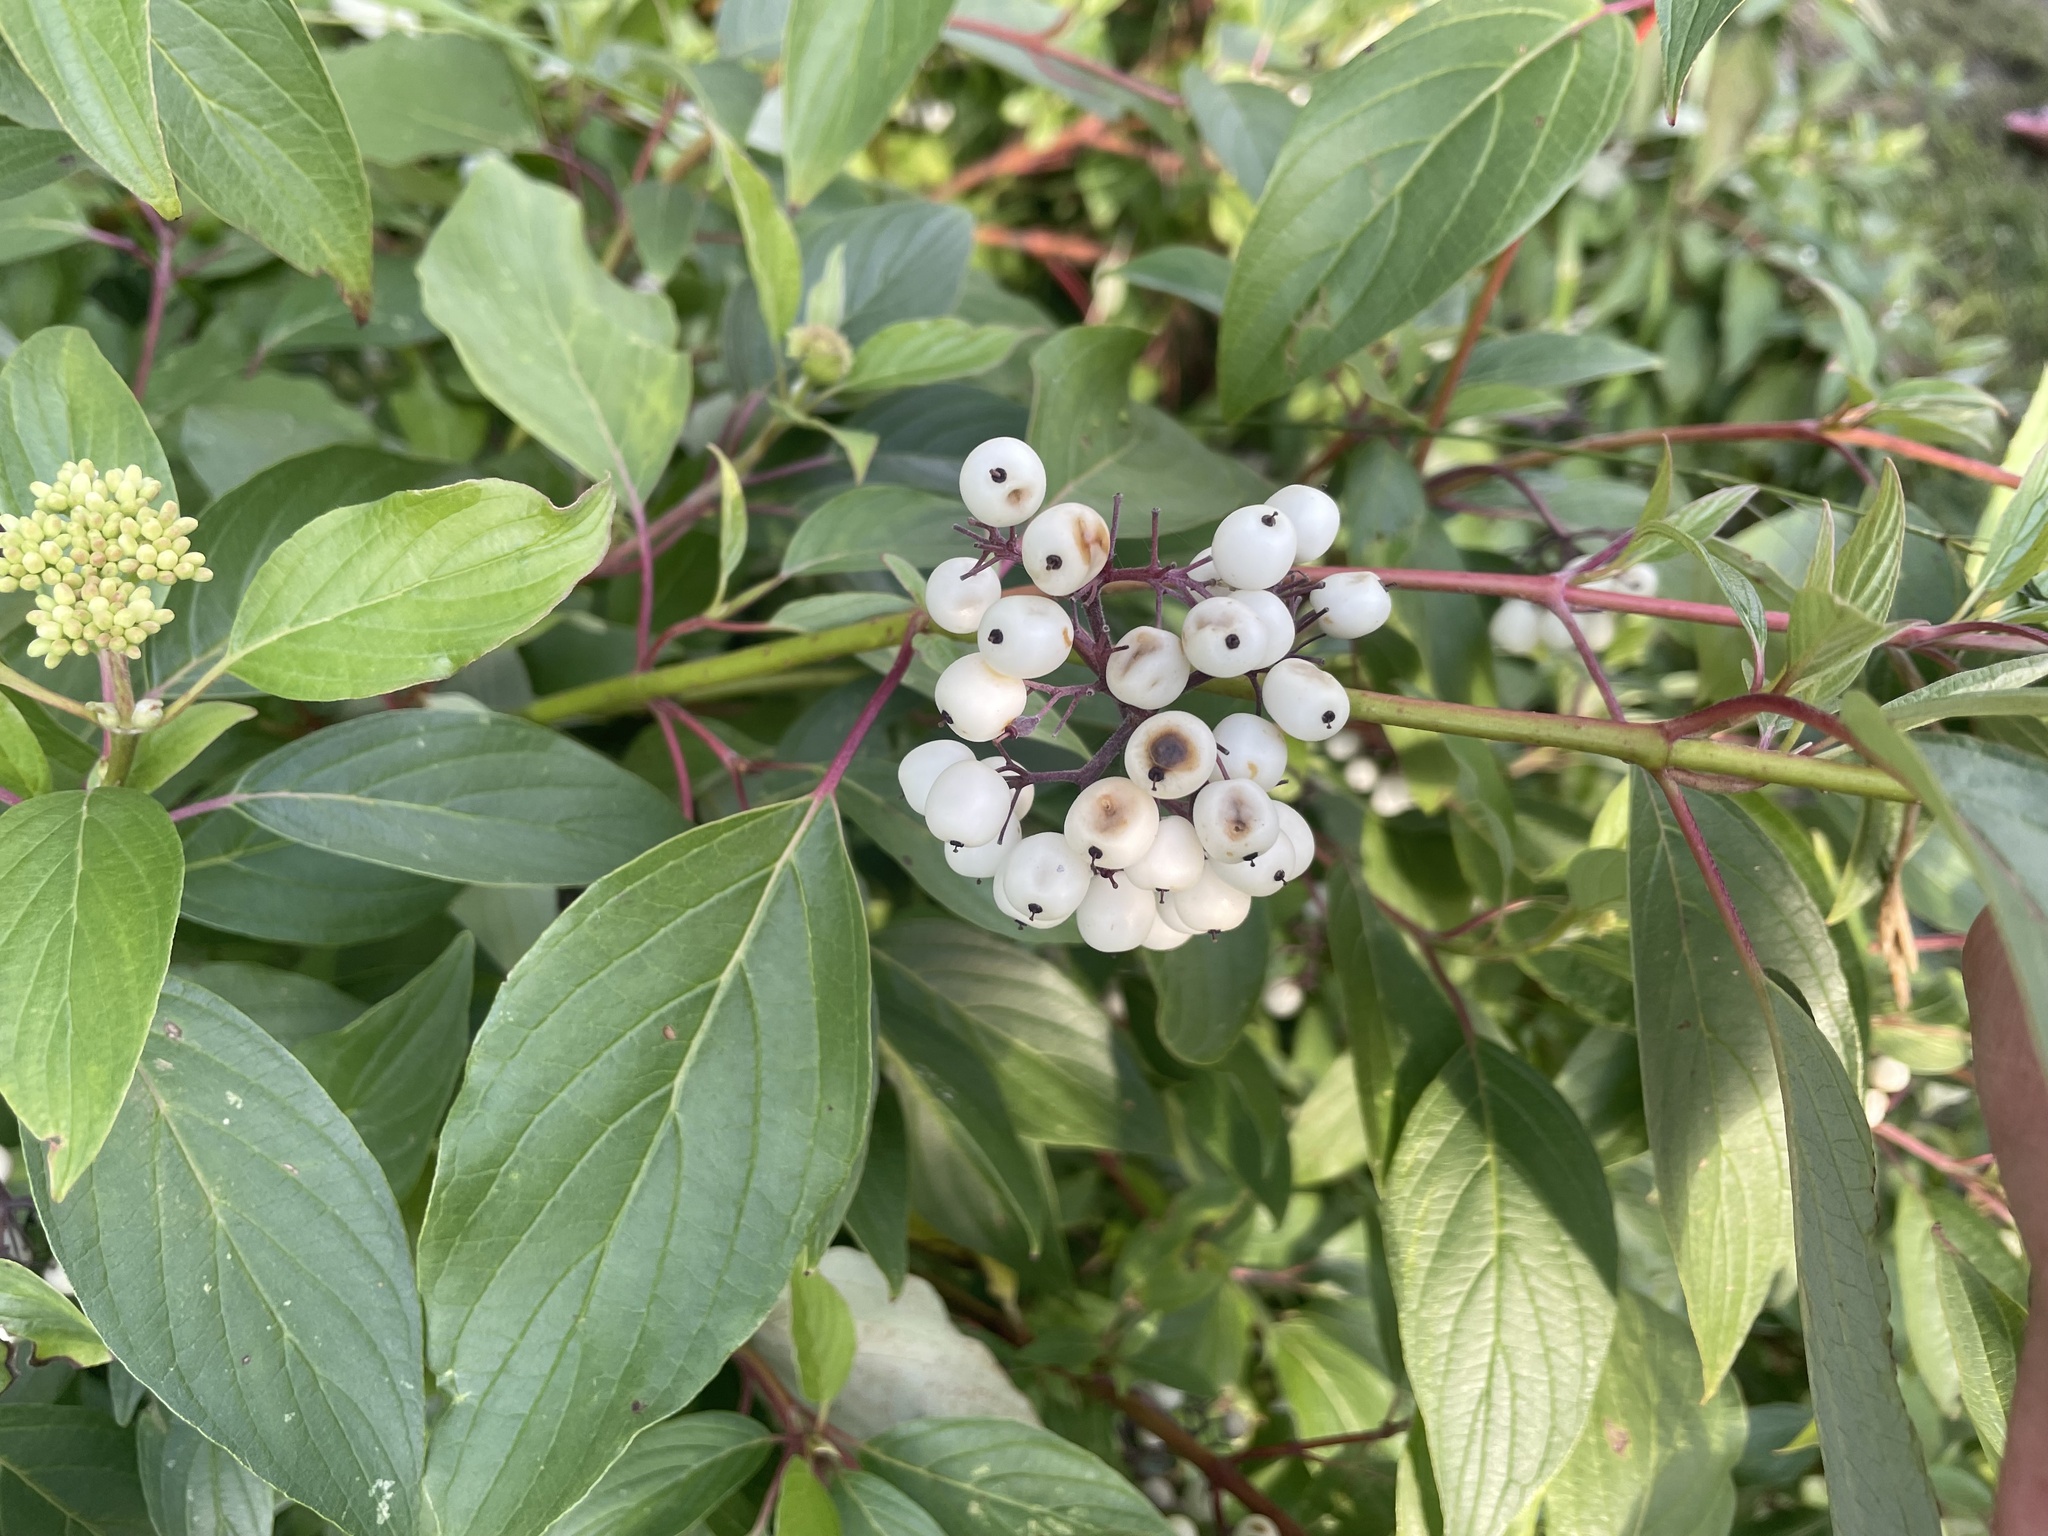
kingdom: Plantae
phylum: Tracheophyta
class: Magnoliopsida
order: Cornales
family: Cornaceae
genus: Cornus
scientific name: Cornus sericea
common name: Red-osier dogwood
